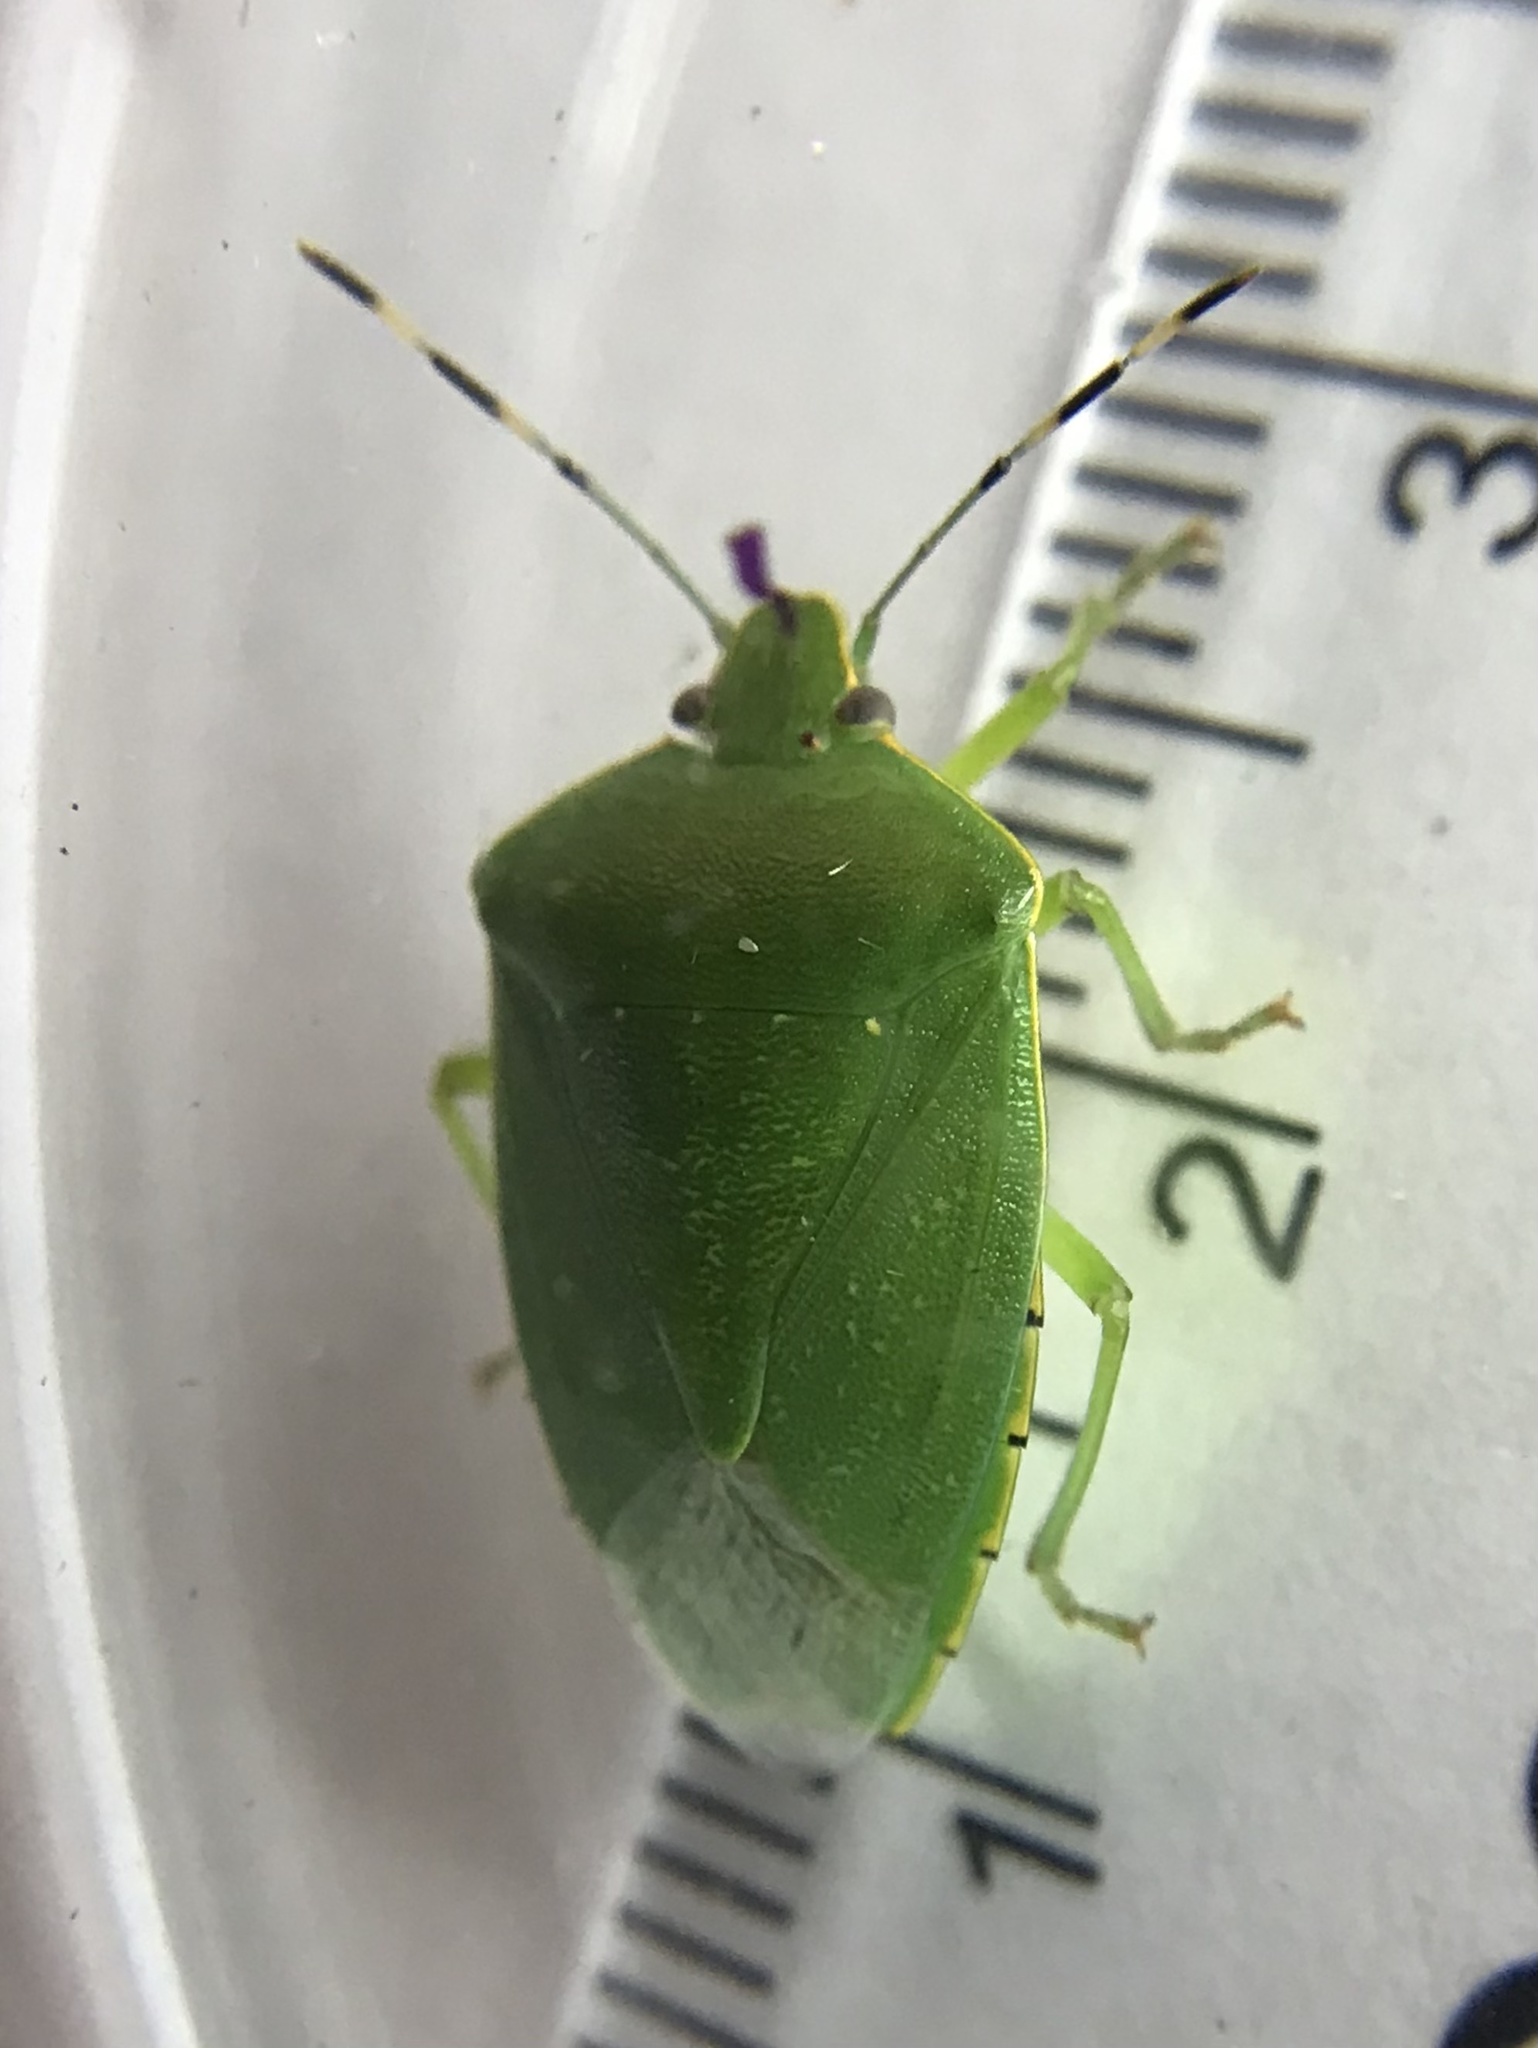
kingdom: Animalia
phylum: Arthropoda
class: Insecta
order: Hemiptera
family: Pentatomidae
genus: Chinavia
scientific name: Chinavia hilaris
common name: Green stink bug
